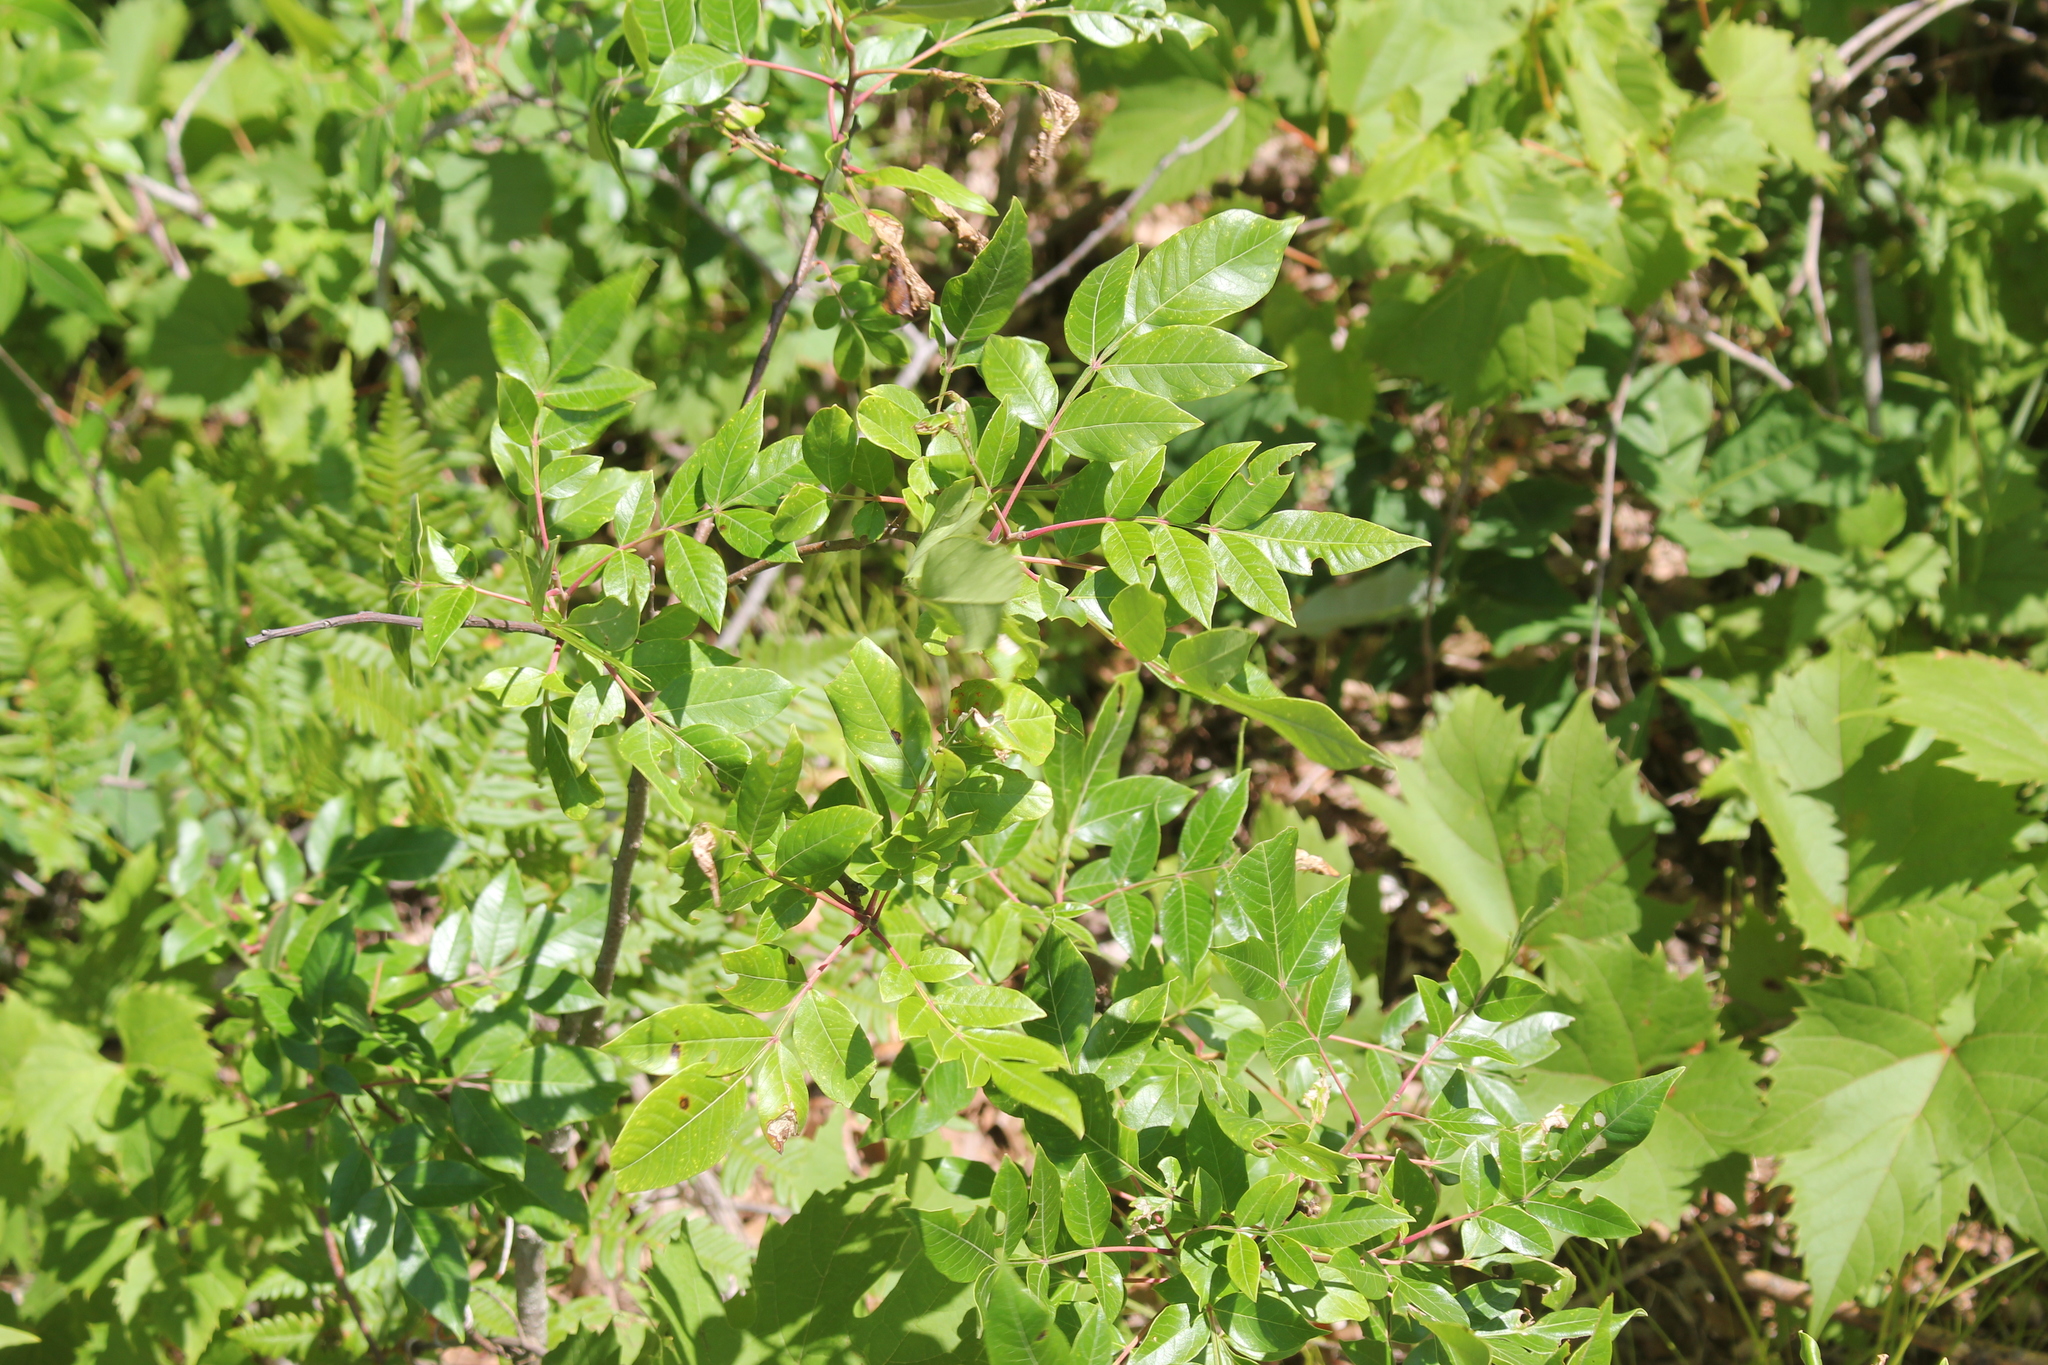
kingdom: Plantae
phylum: Tracheophyta
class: Magnoliopsida
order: Sapindales
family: Anacardiaceae
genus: Rhus
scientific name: Rhus copallina
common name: Shining sumac
